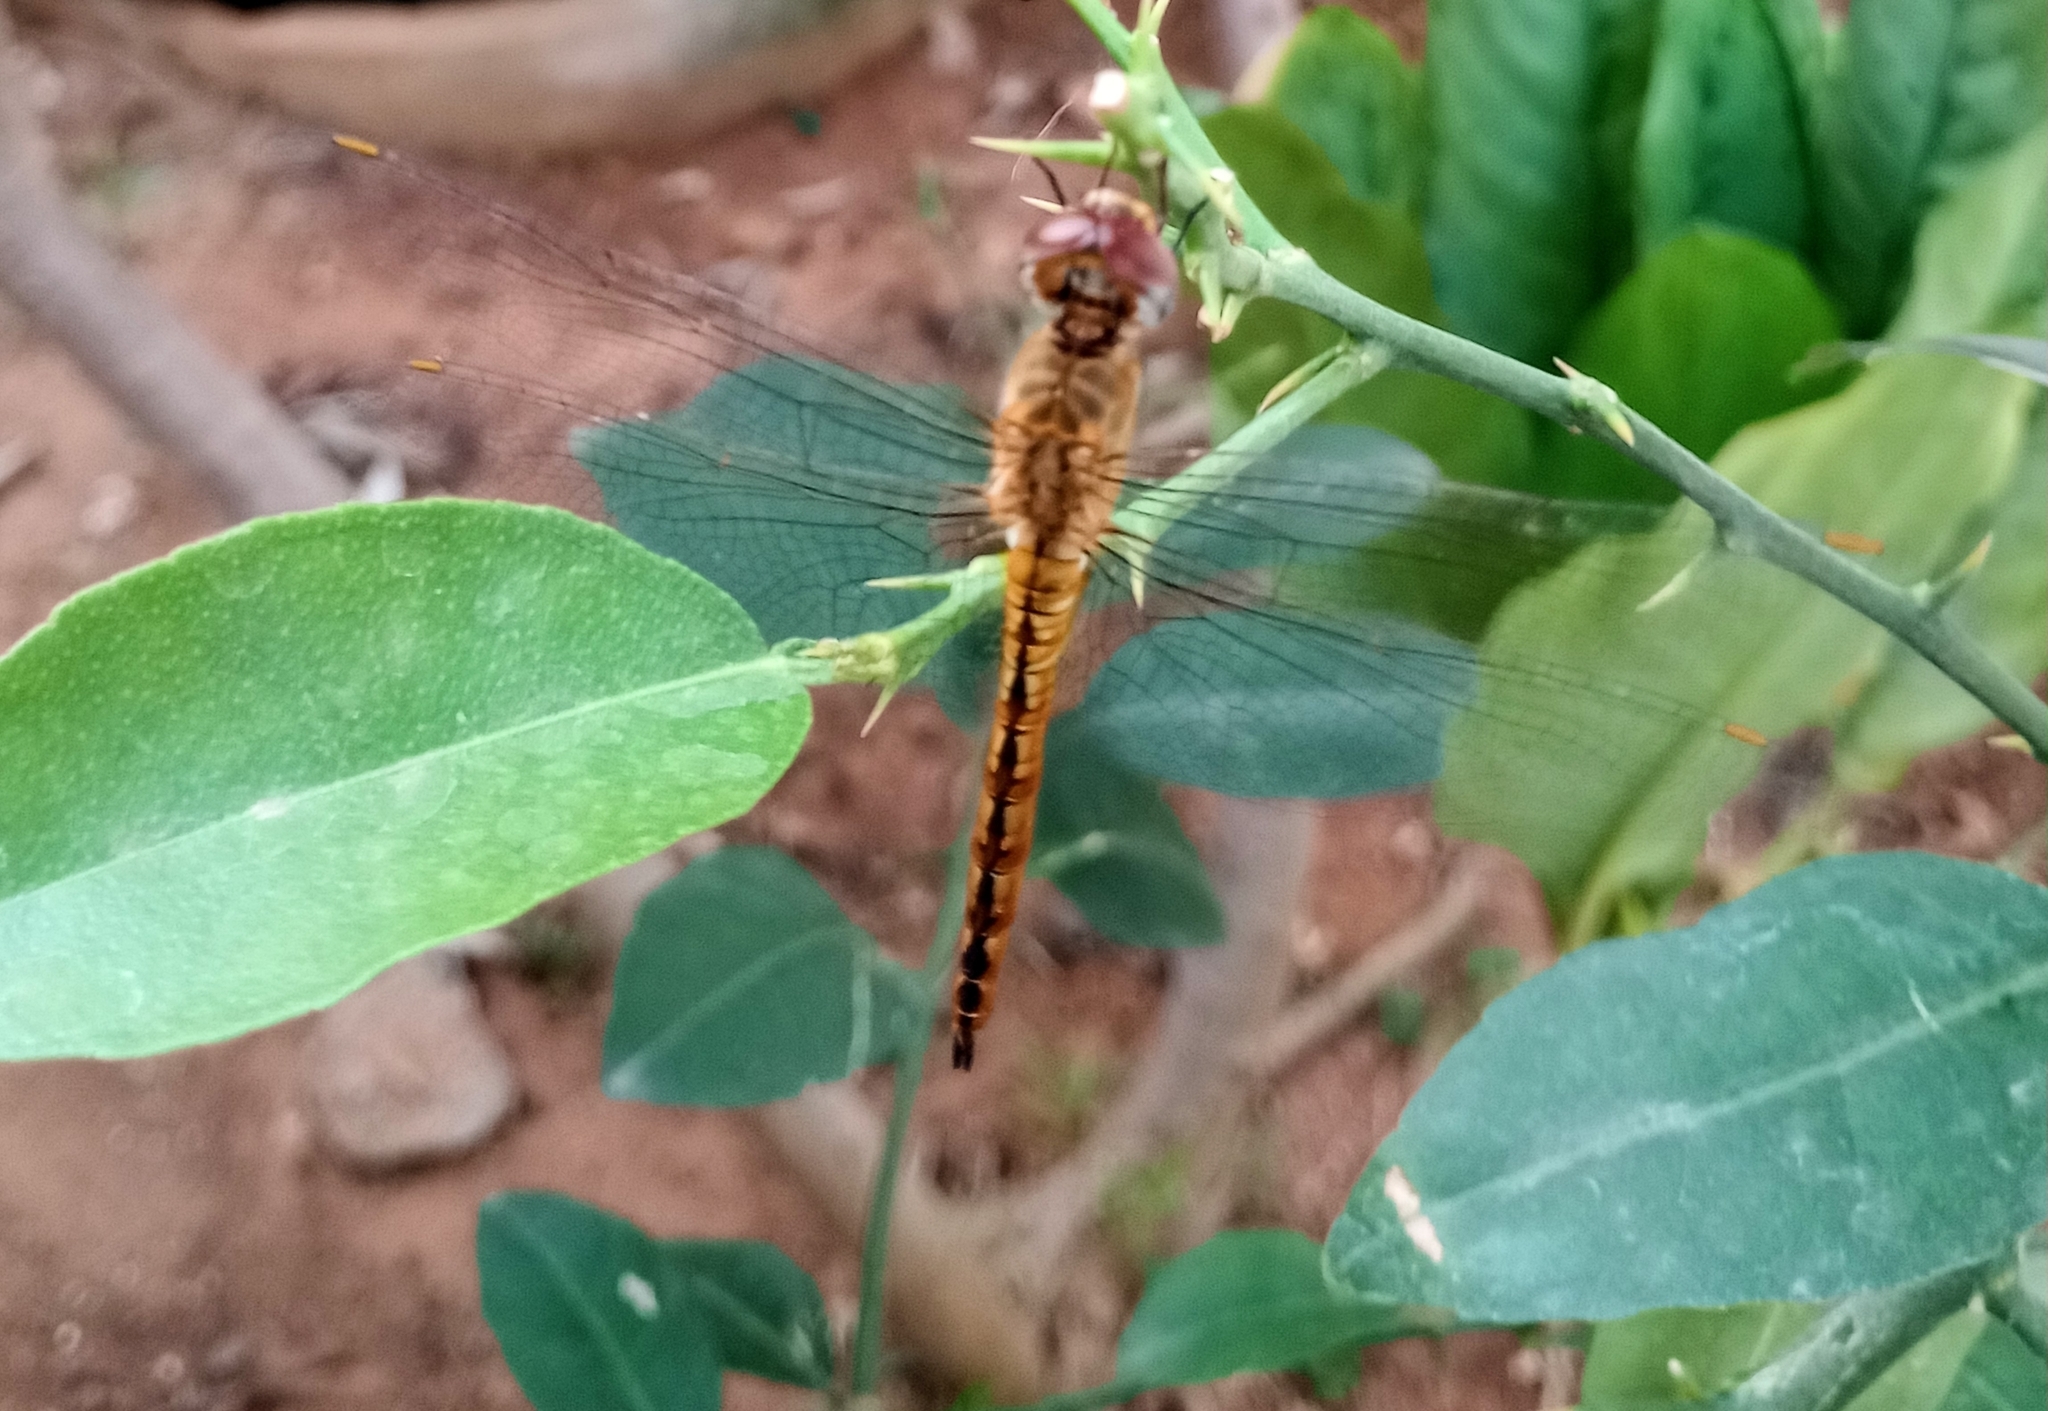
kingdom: Animalia
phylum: Arthropoda
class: Insecta
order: Odonata
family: Libellulidae
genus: Pantala
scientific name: Pantala flavescens
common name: Wandering glider
